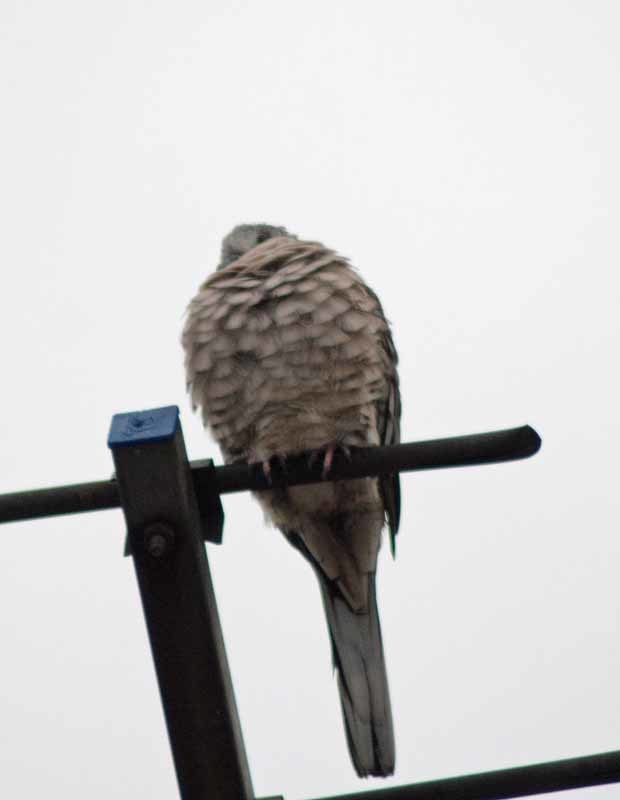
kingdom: Animalia
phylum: Chordata
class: Aves
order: Columbiformes
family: Columbidae
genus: Columbina
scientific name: Columbina inca
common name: Inca dove
